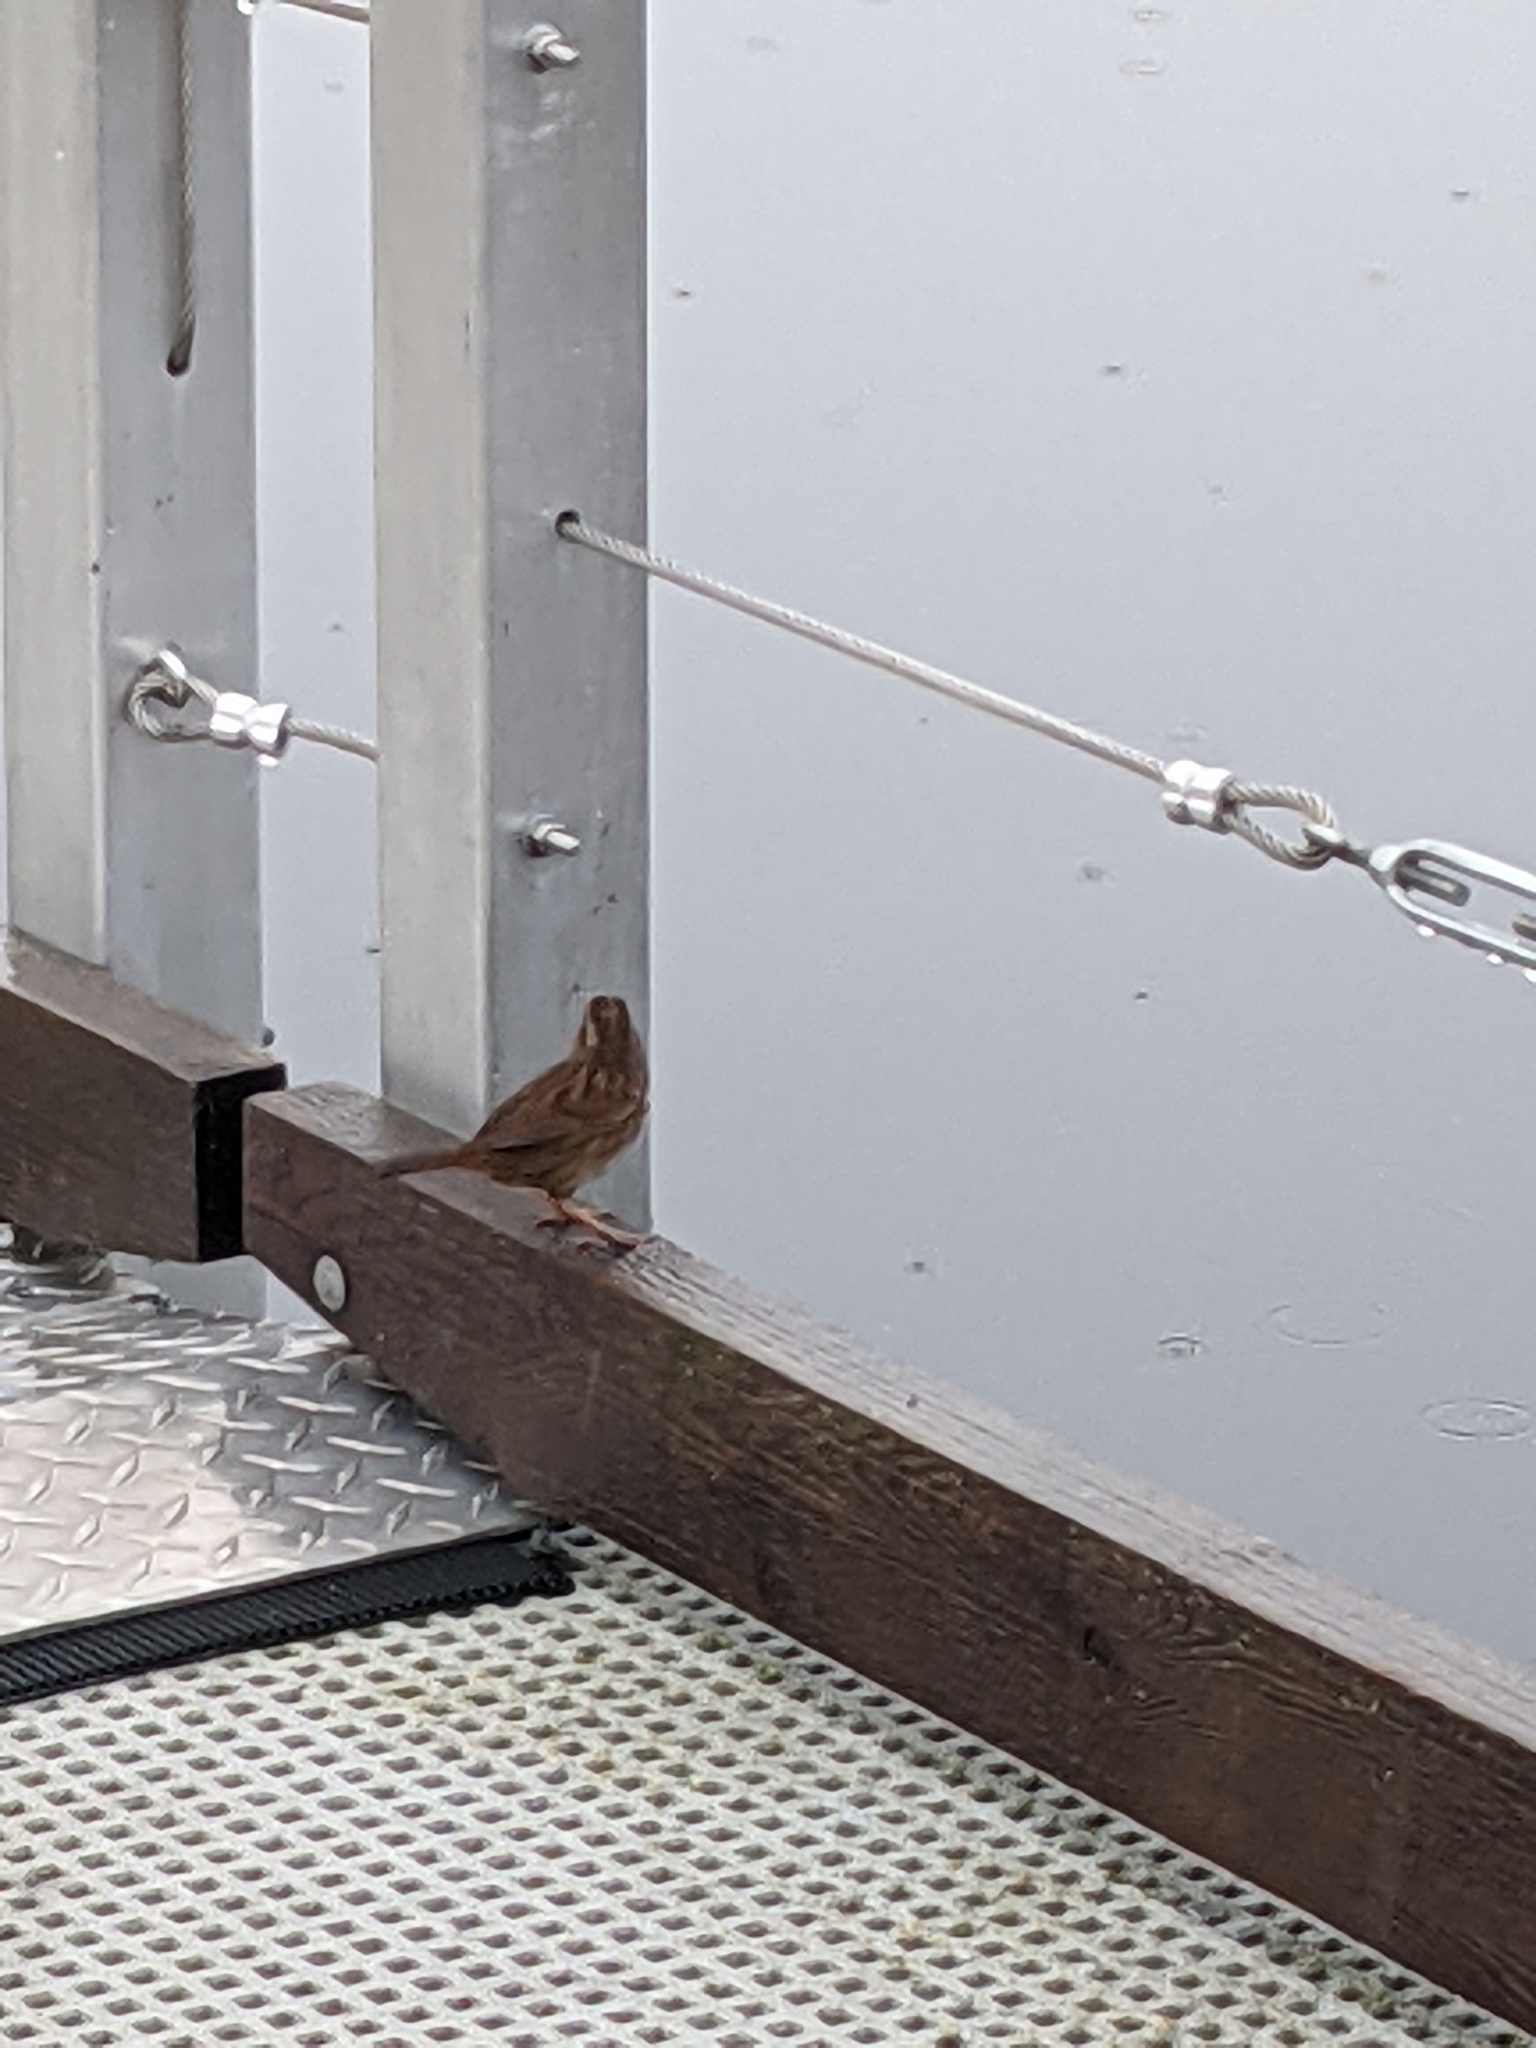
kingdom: Animalia
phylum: Chordata
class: Aves
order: Passeriformes
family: Passerellidae
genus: Melospiza
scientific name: Melospiza melodia
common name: Song sparrow
